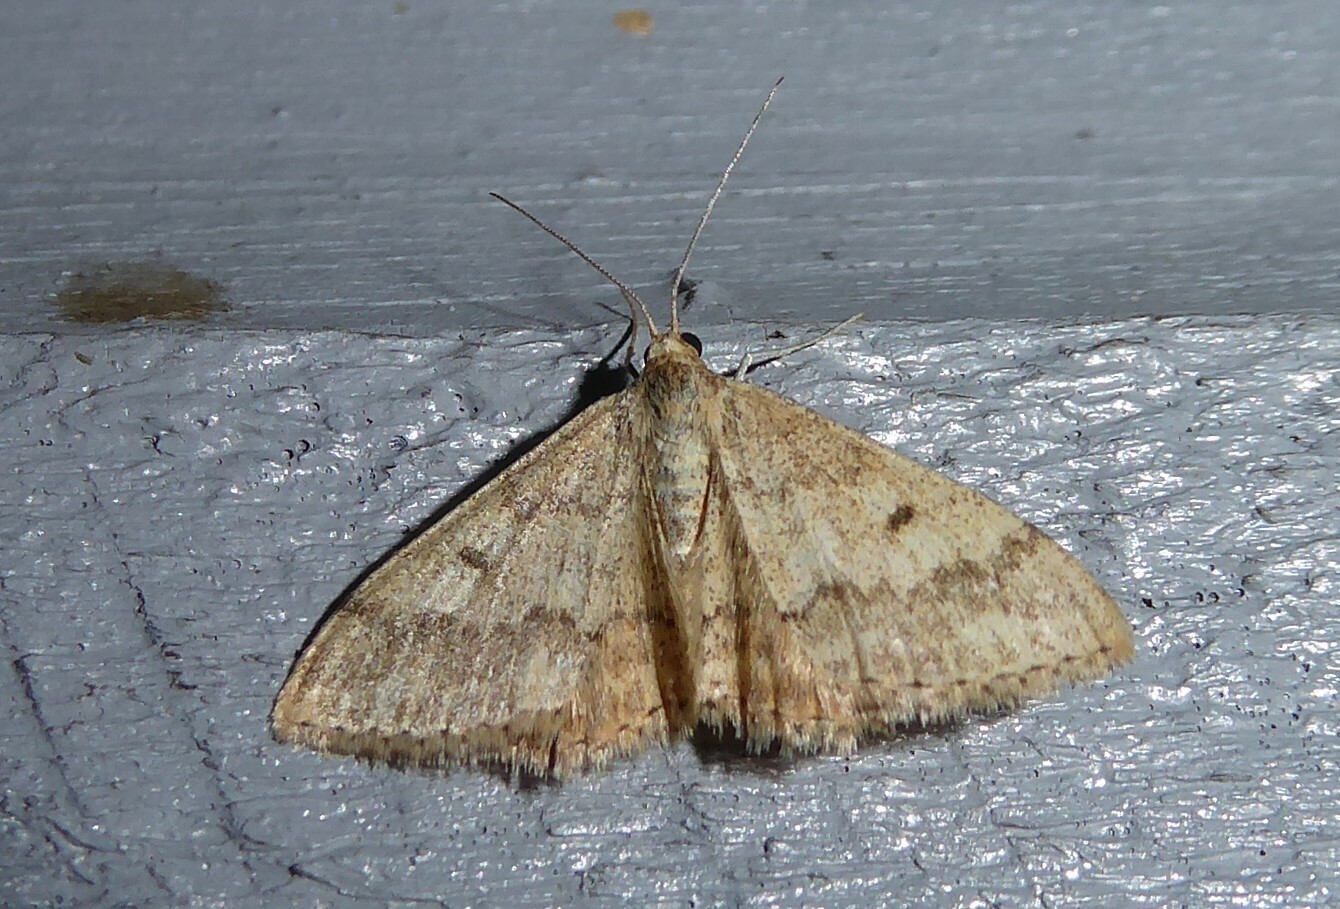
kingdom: Animalia
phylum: Arthropoda
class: Insecta
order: Lepidoptera
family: Geometridae
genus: Scopula
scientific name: Scopula rubraria
